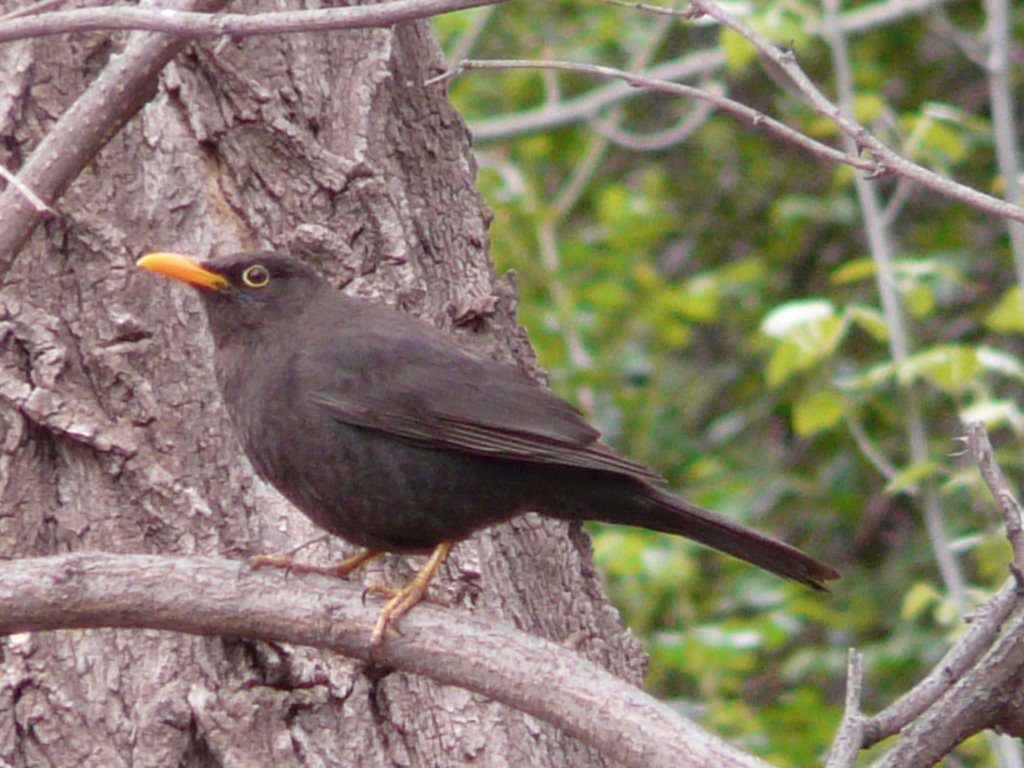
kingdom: Animalia
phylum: Chordata
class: Aves
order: Passeriformes
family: Turdidae
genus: Turdus
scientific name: Turdus chiguanco
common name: Chiguanco thrush
